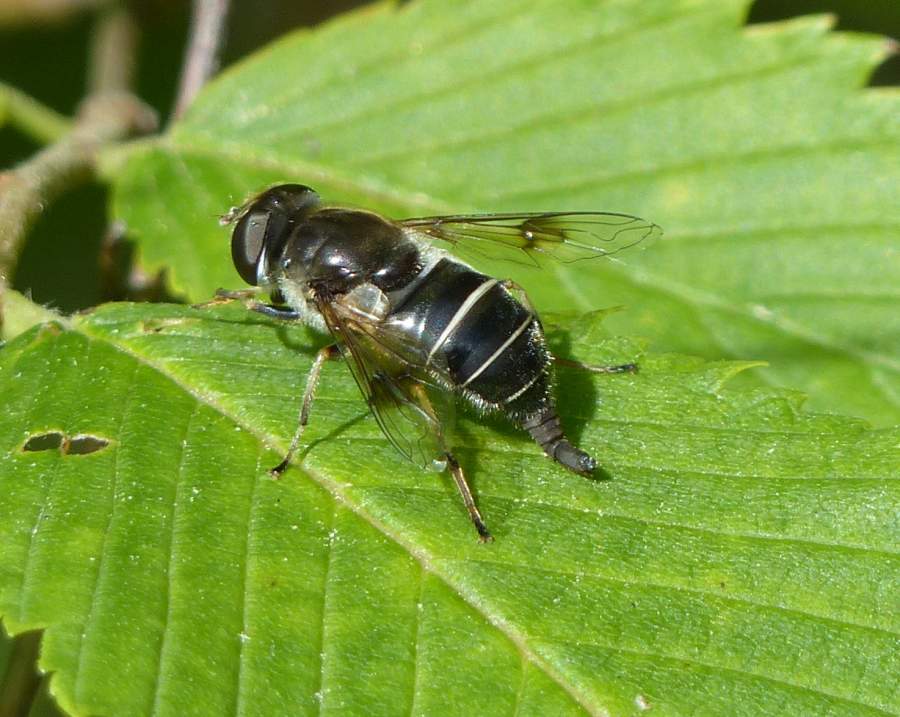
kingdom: Animalia
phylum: Arthropoda
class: Insecta
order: Diptera
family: Syrphidae
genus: Eristalis
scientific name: Eristalis obscura
